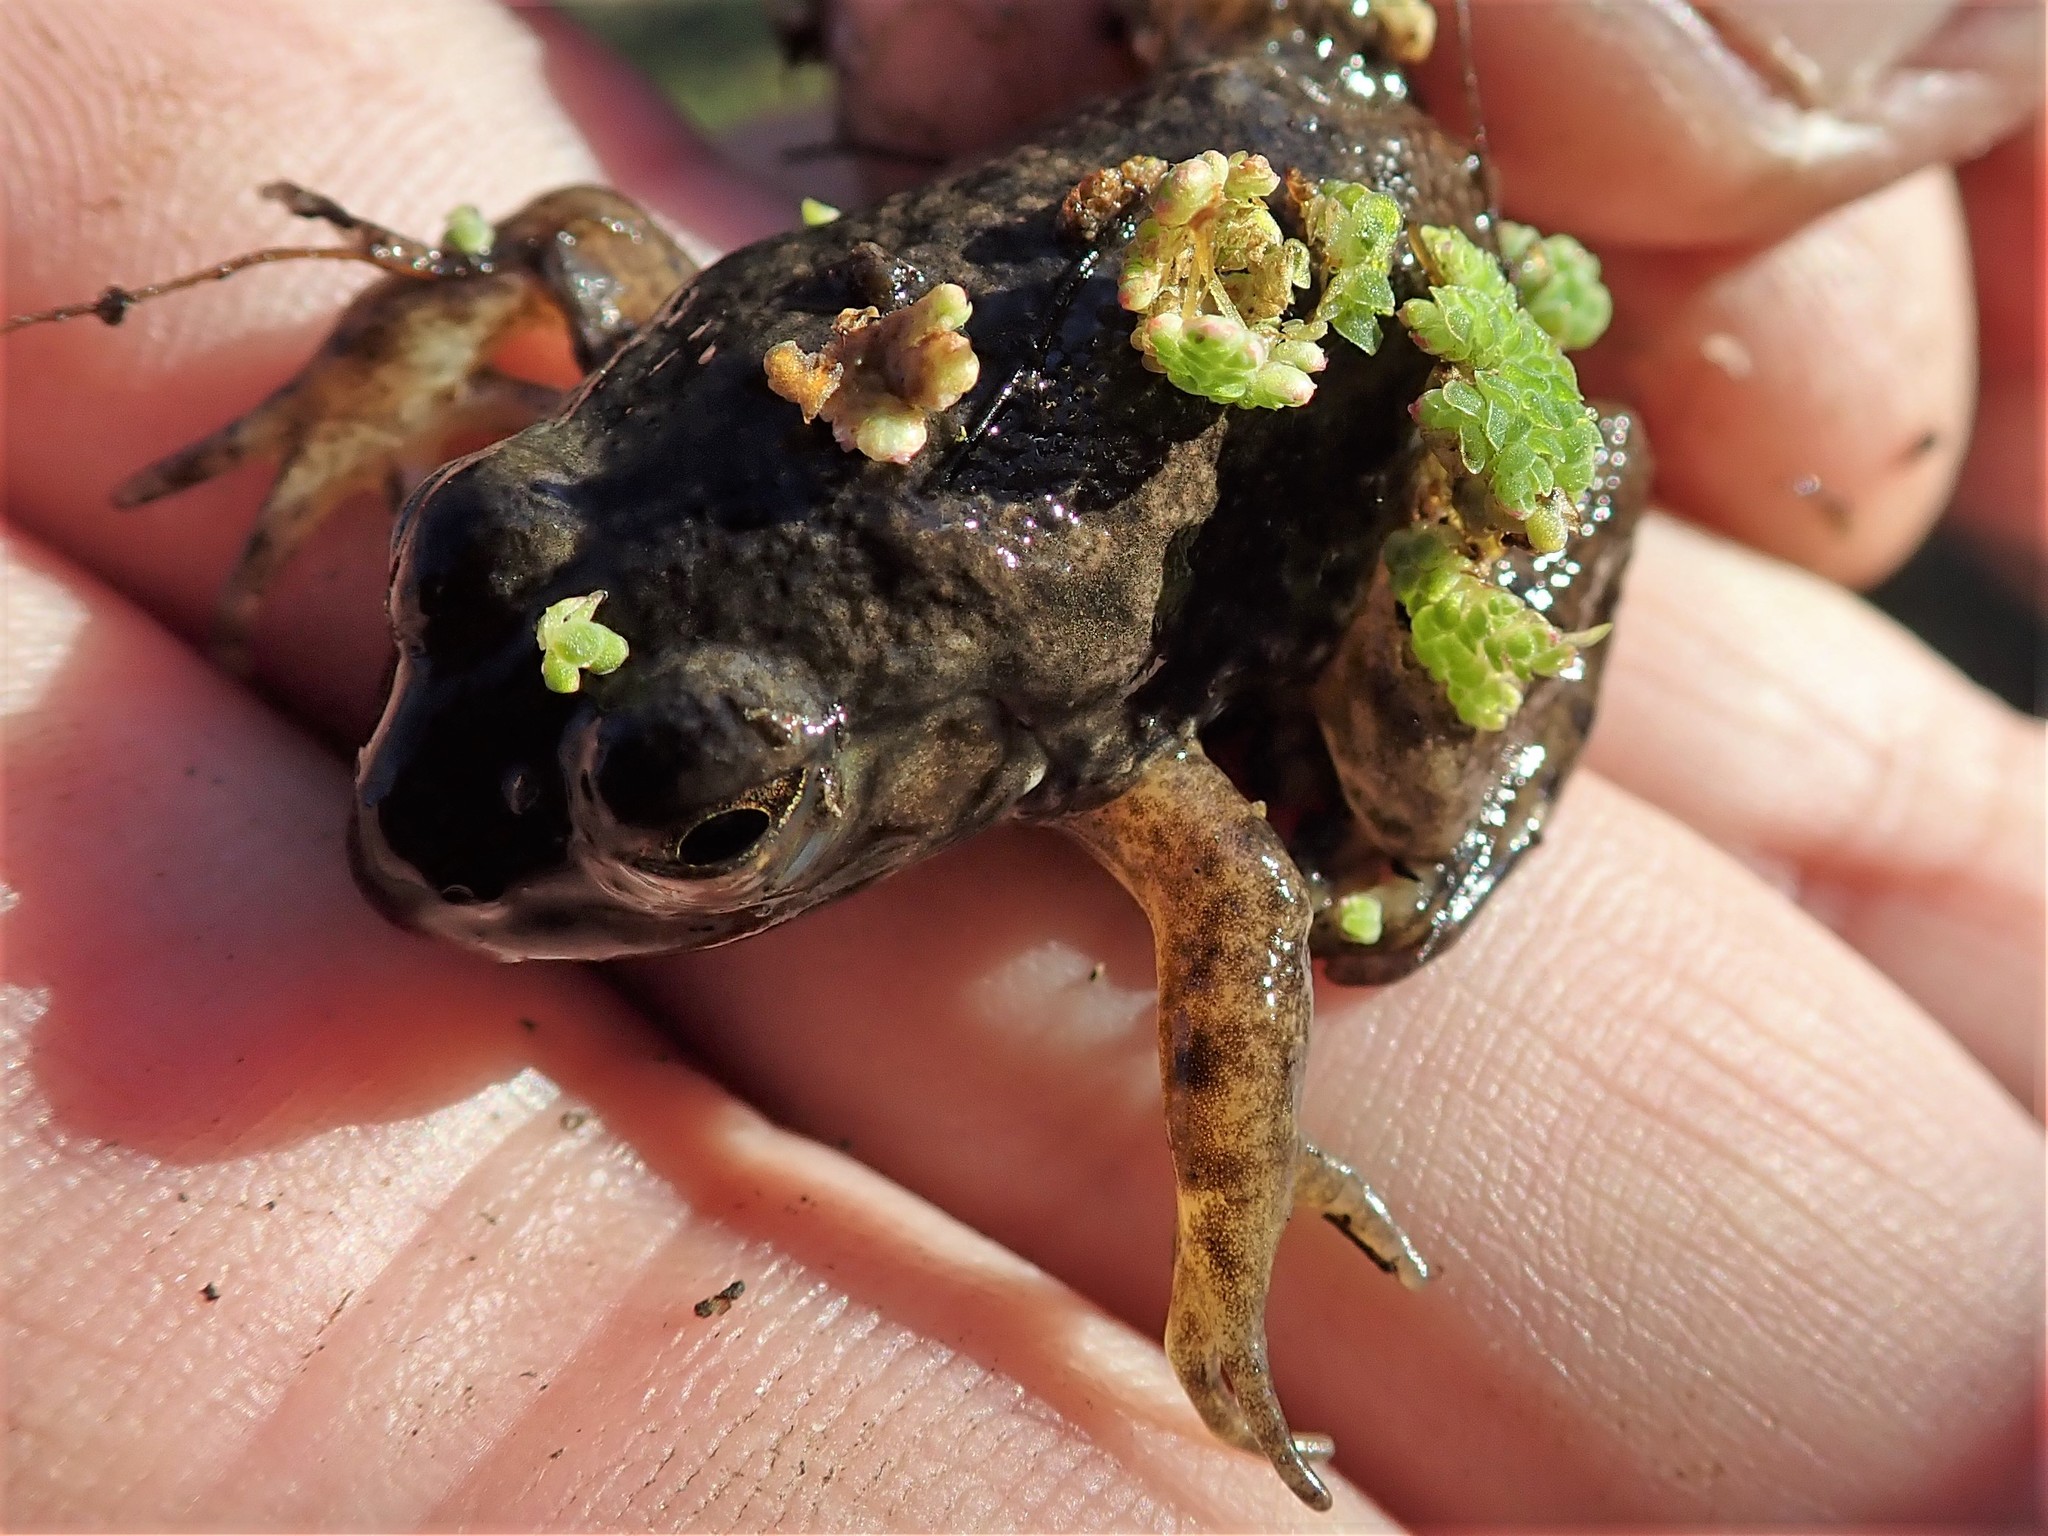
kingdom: Animalia
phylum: Chordata
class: Amphibia
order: Anura
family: Ranidae
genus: Lithobates
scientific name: Lithobates catesbeianus
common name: American bullfrog
